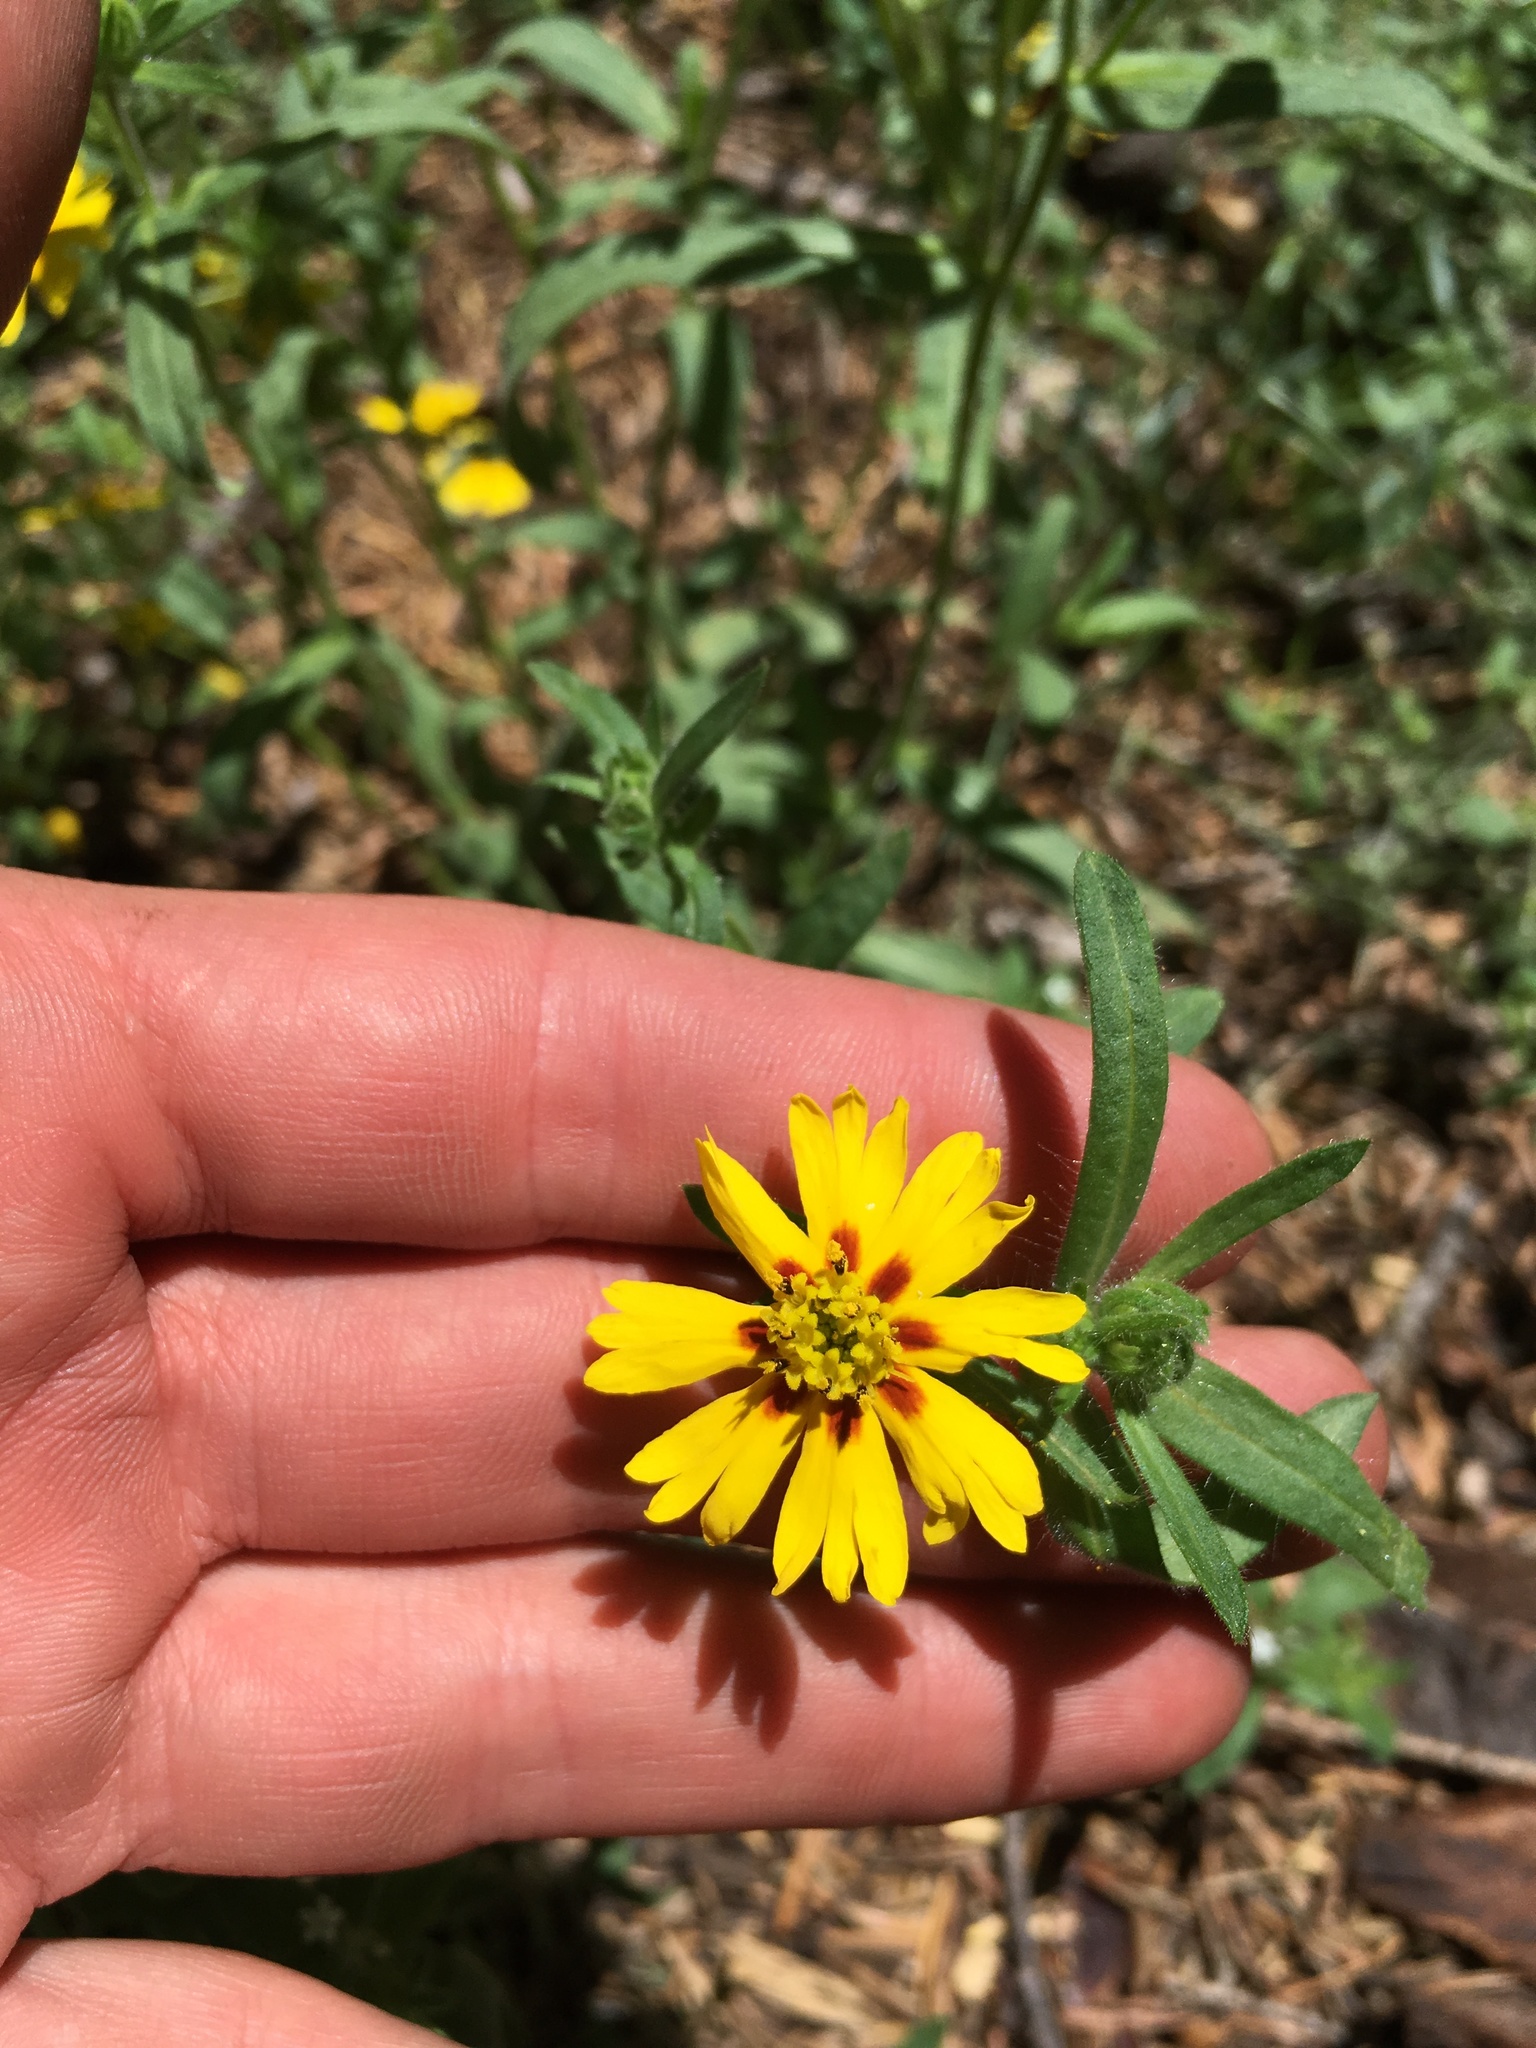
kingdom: Plantae
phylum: Tracheophyta
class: Magnoliopsida
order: Asterales
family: Asteraceae
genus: Madia
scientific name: Madia elegans
